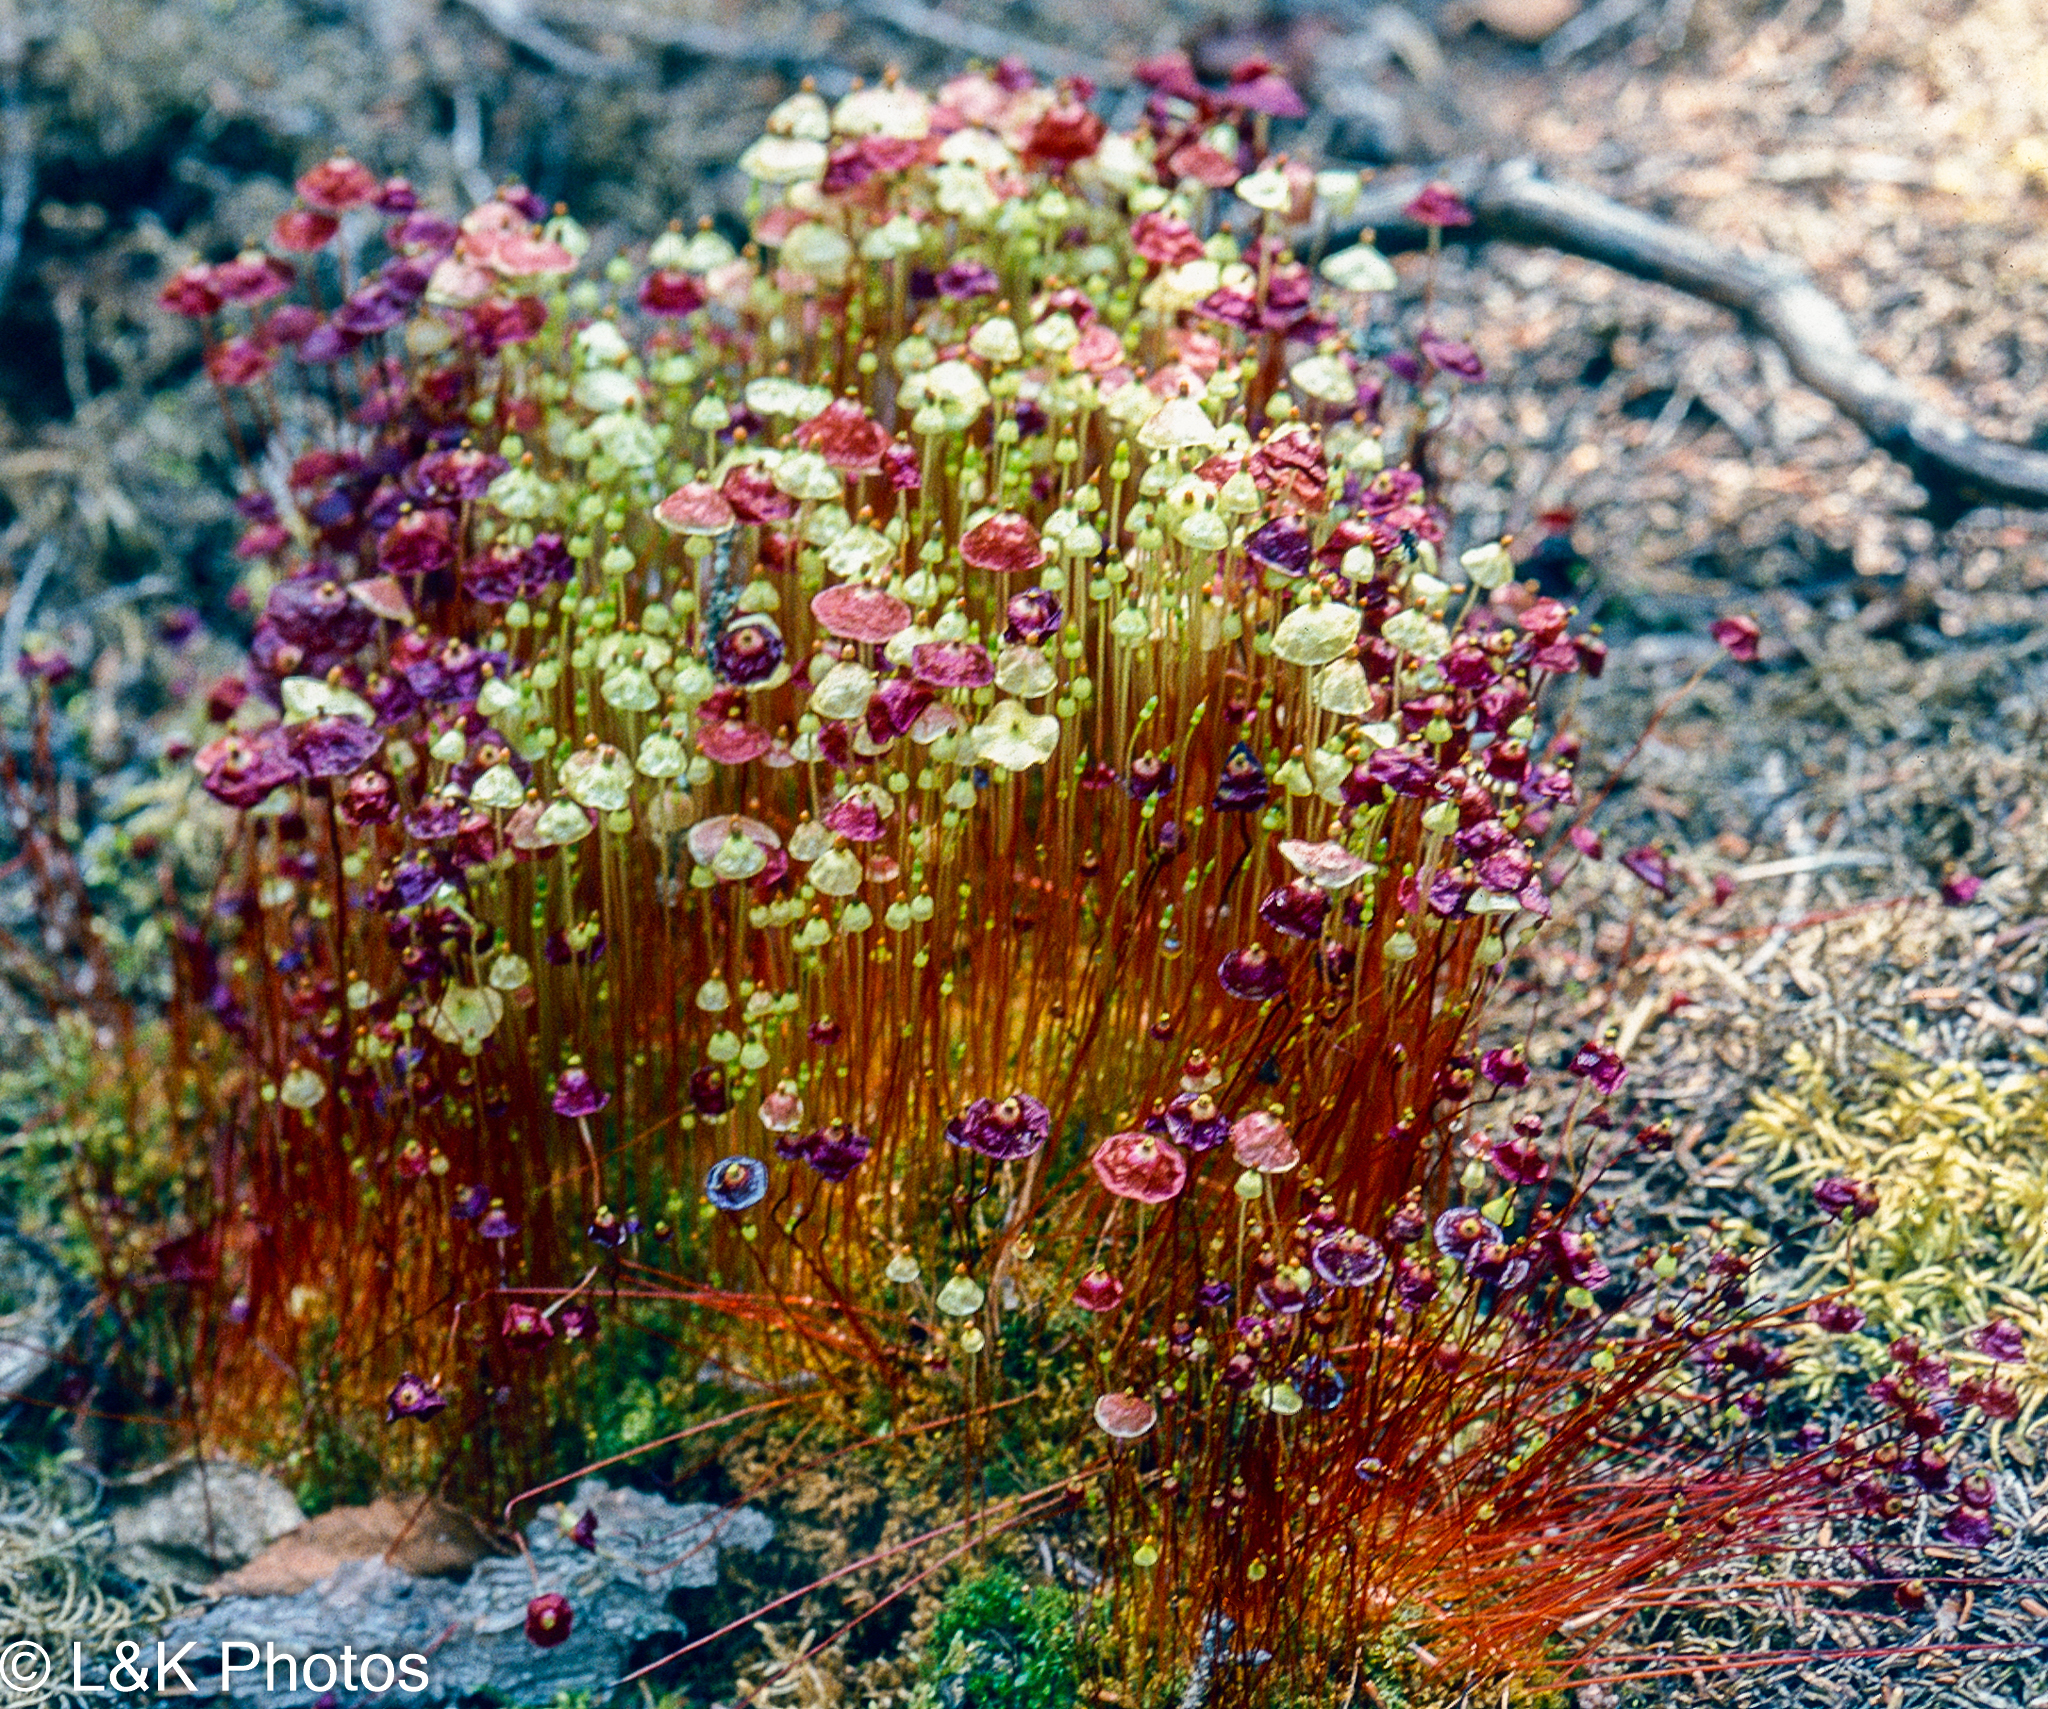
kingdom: Plantae
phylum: Bryophyta
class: Bryopsida
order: Splachnales
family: Splachnaceae
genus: Splachnum
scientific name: Splachnum luteum
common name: Yellow dung moss
